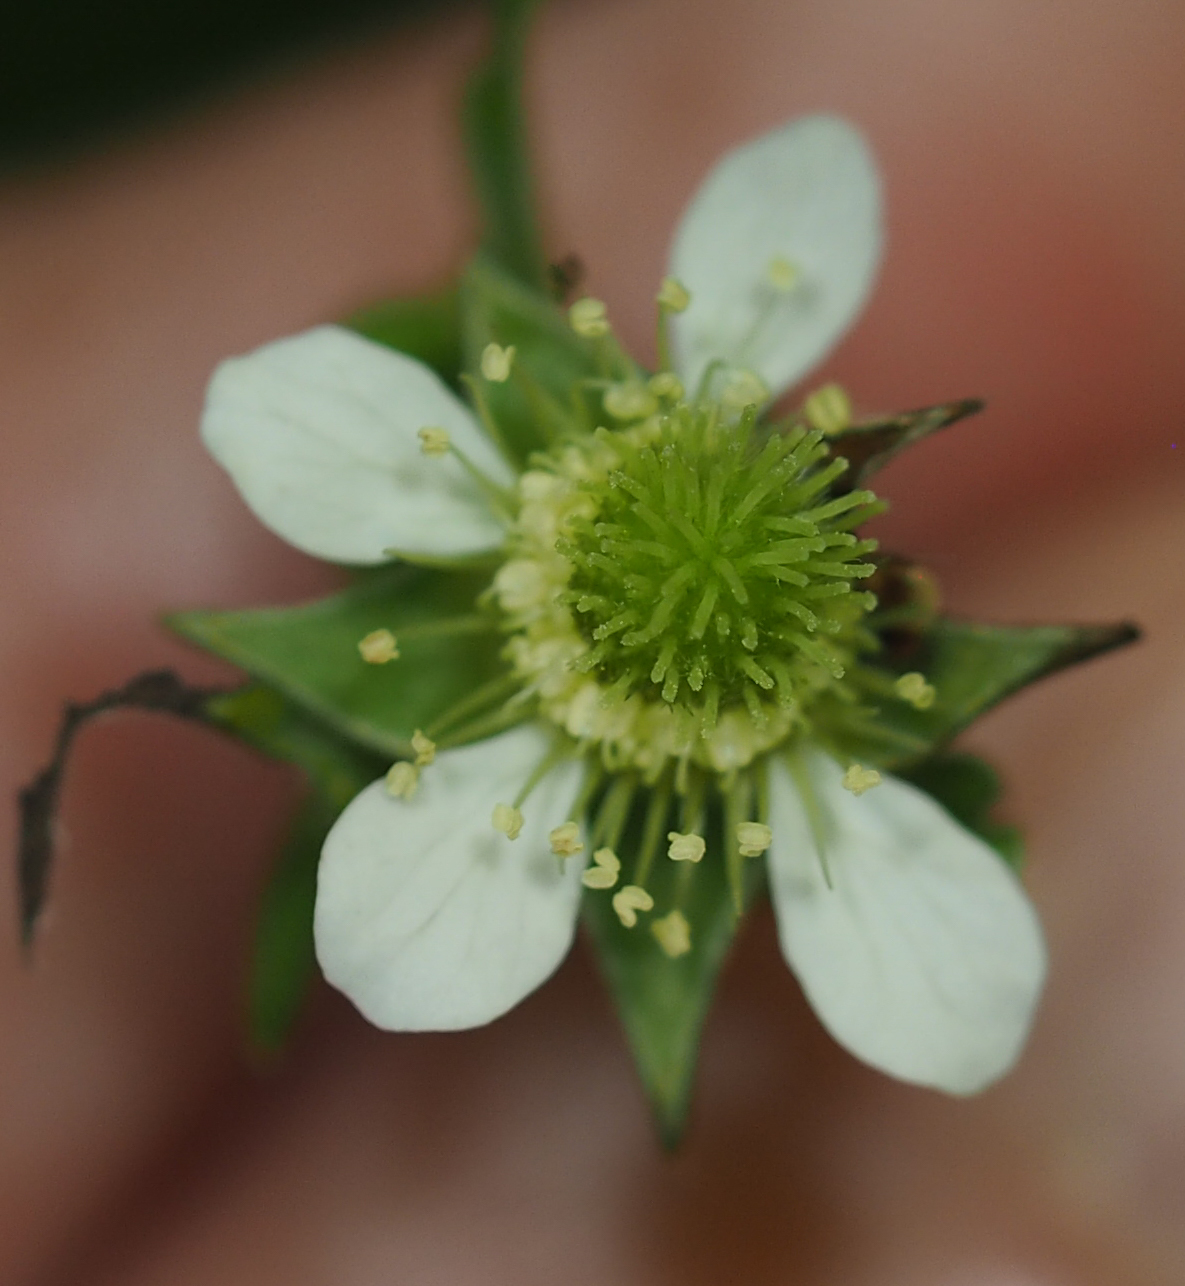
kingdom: Plantae
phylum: Tracheophyta
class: Magnoliopsida
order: Rosales
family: Rosaceae
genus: Geum
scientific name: Geum canadense
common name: White avens
